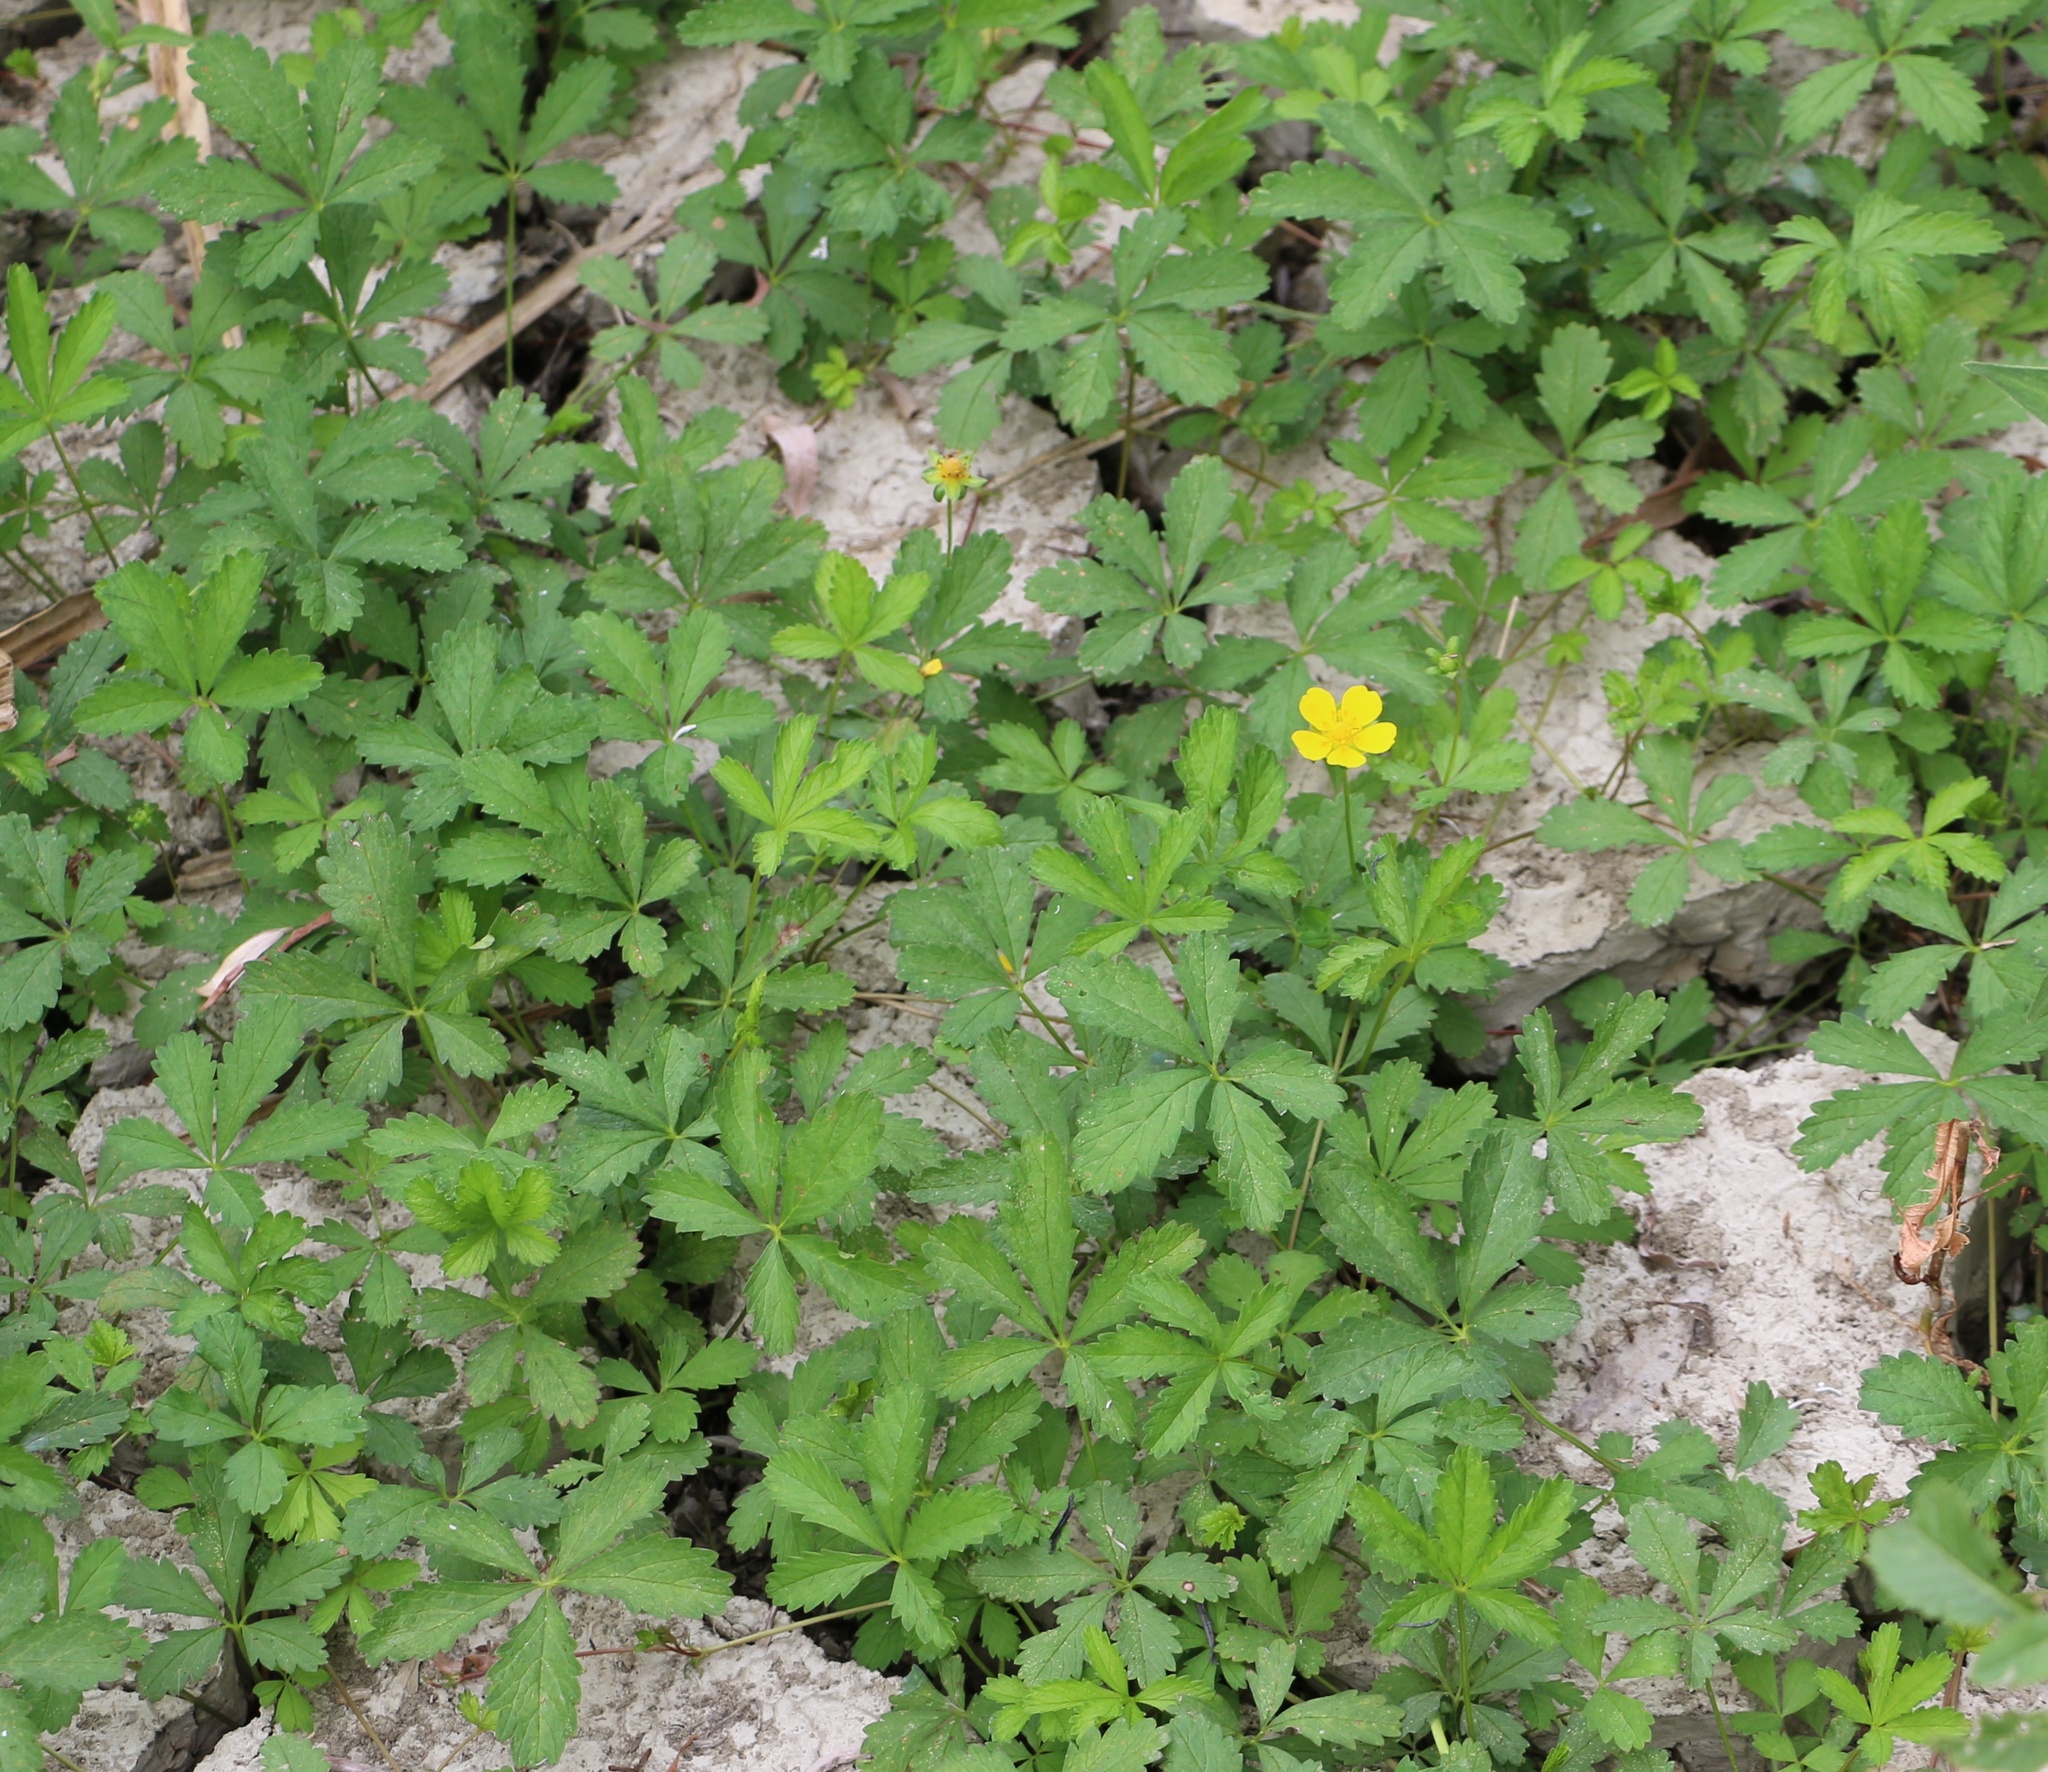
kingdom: Plantae
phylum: Tracheophyta
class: Magnoliopsida
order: Rosales
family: Rosaceae
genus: Potentilla
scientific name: Potentilla reptans
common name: Creeping cinquefoil
